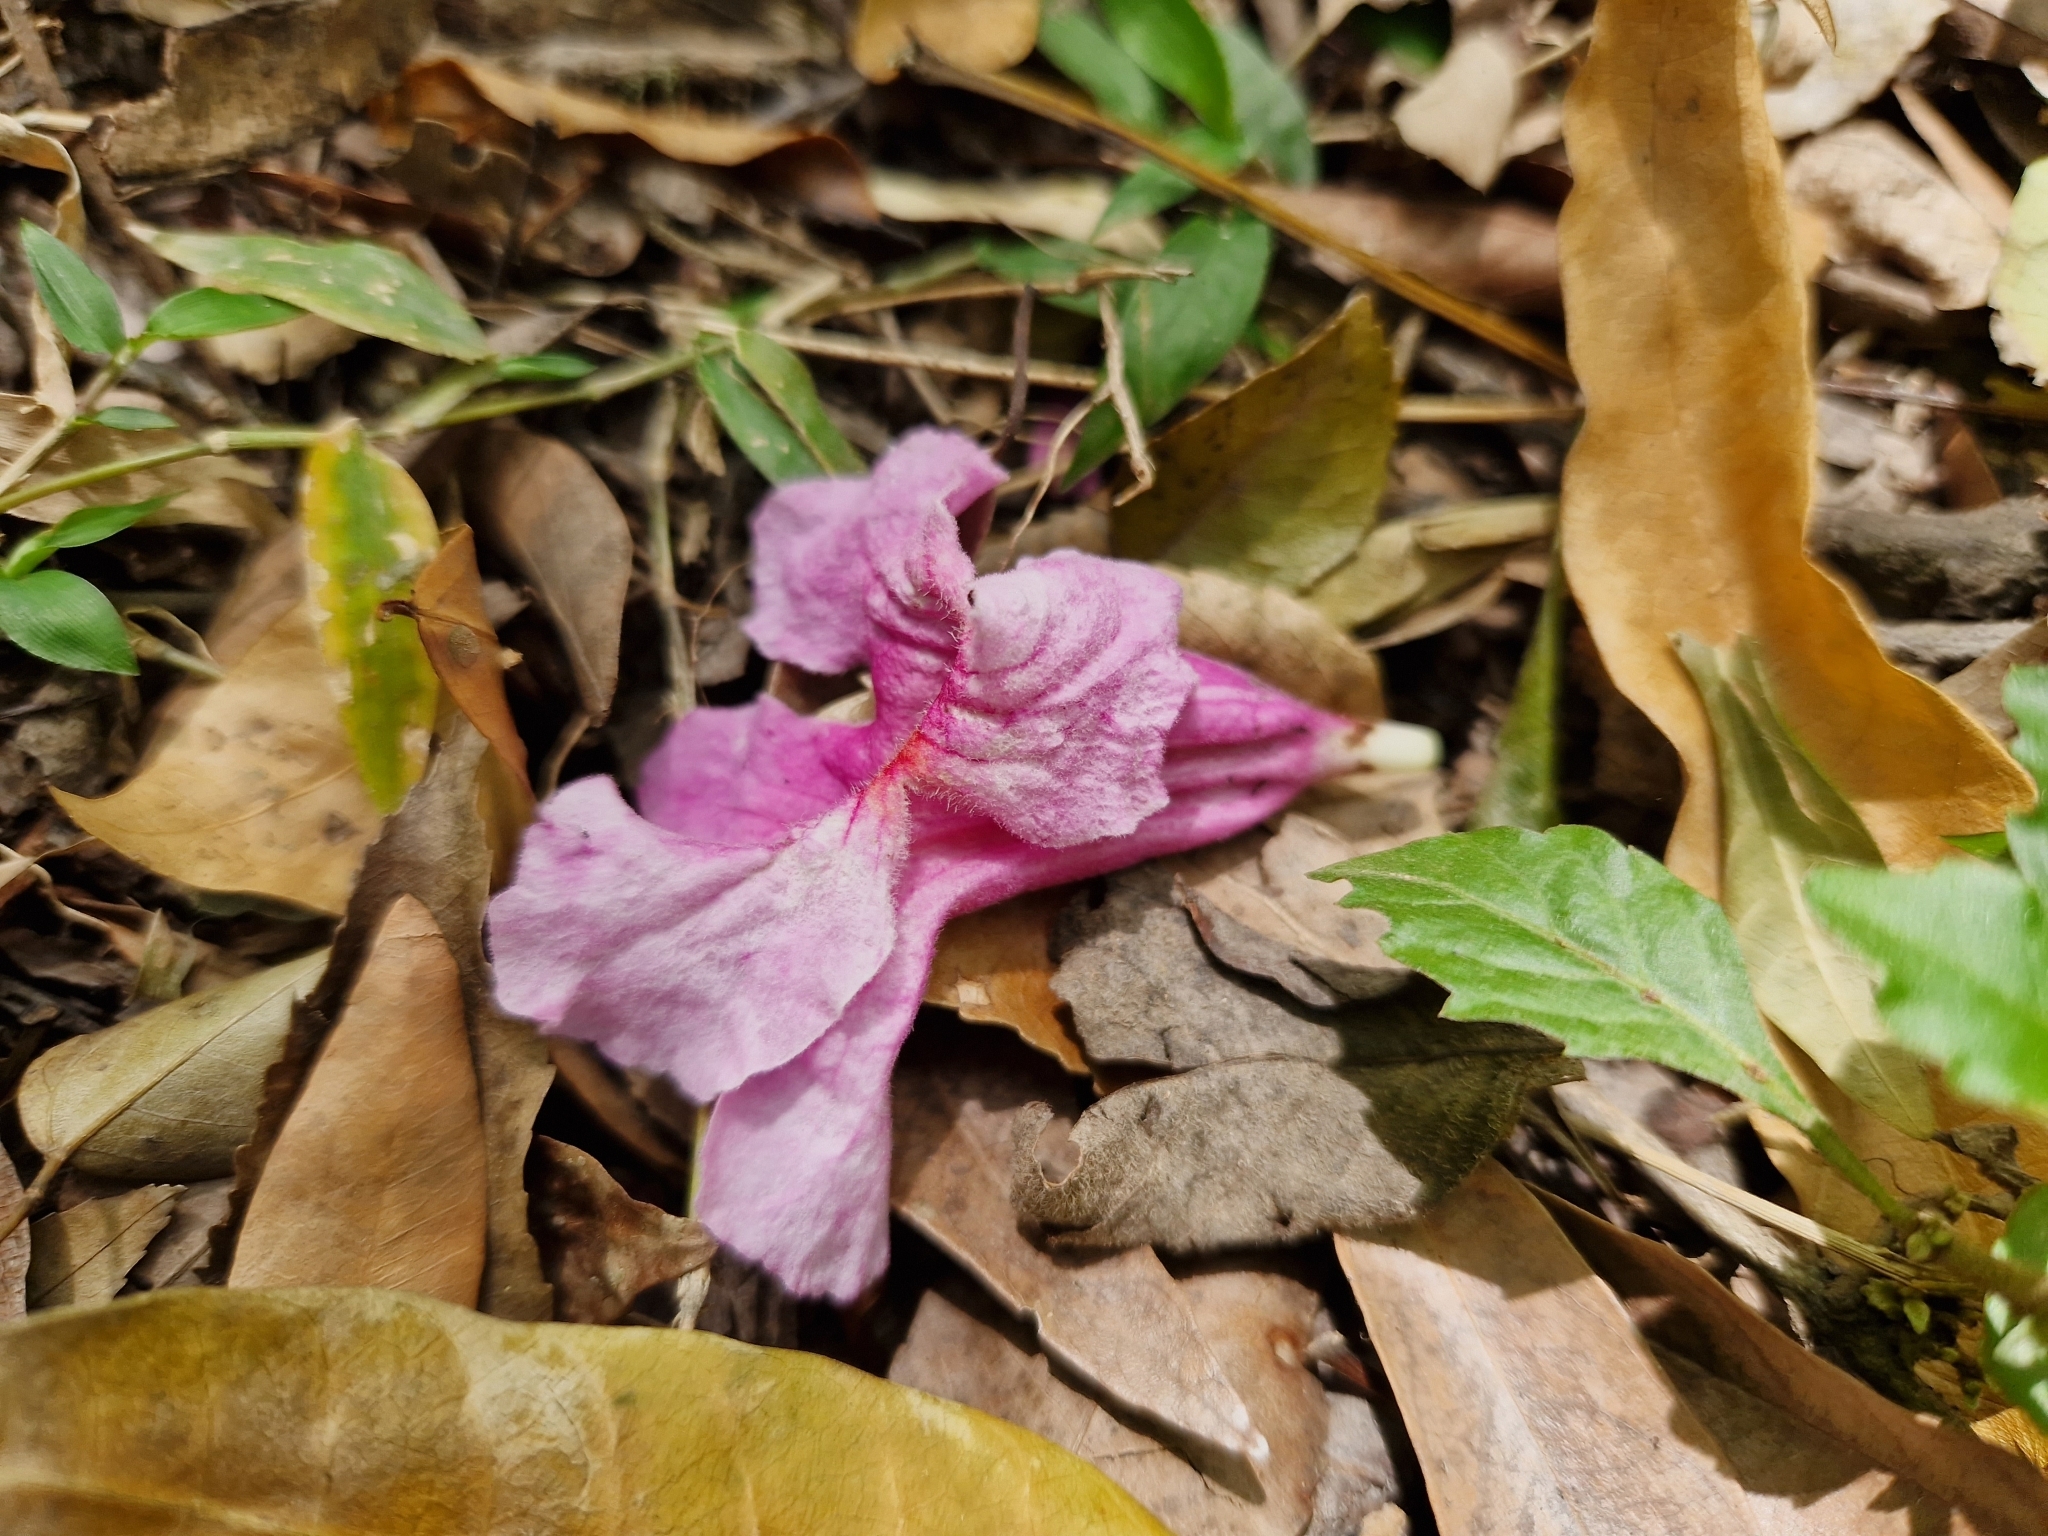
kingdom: Plantae
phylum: Tracheophyta
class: Magnoliopsida
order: Lamiales
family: Bignoniaceae
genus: Handroanthus
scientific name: Handroanthus heptaphyllus
